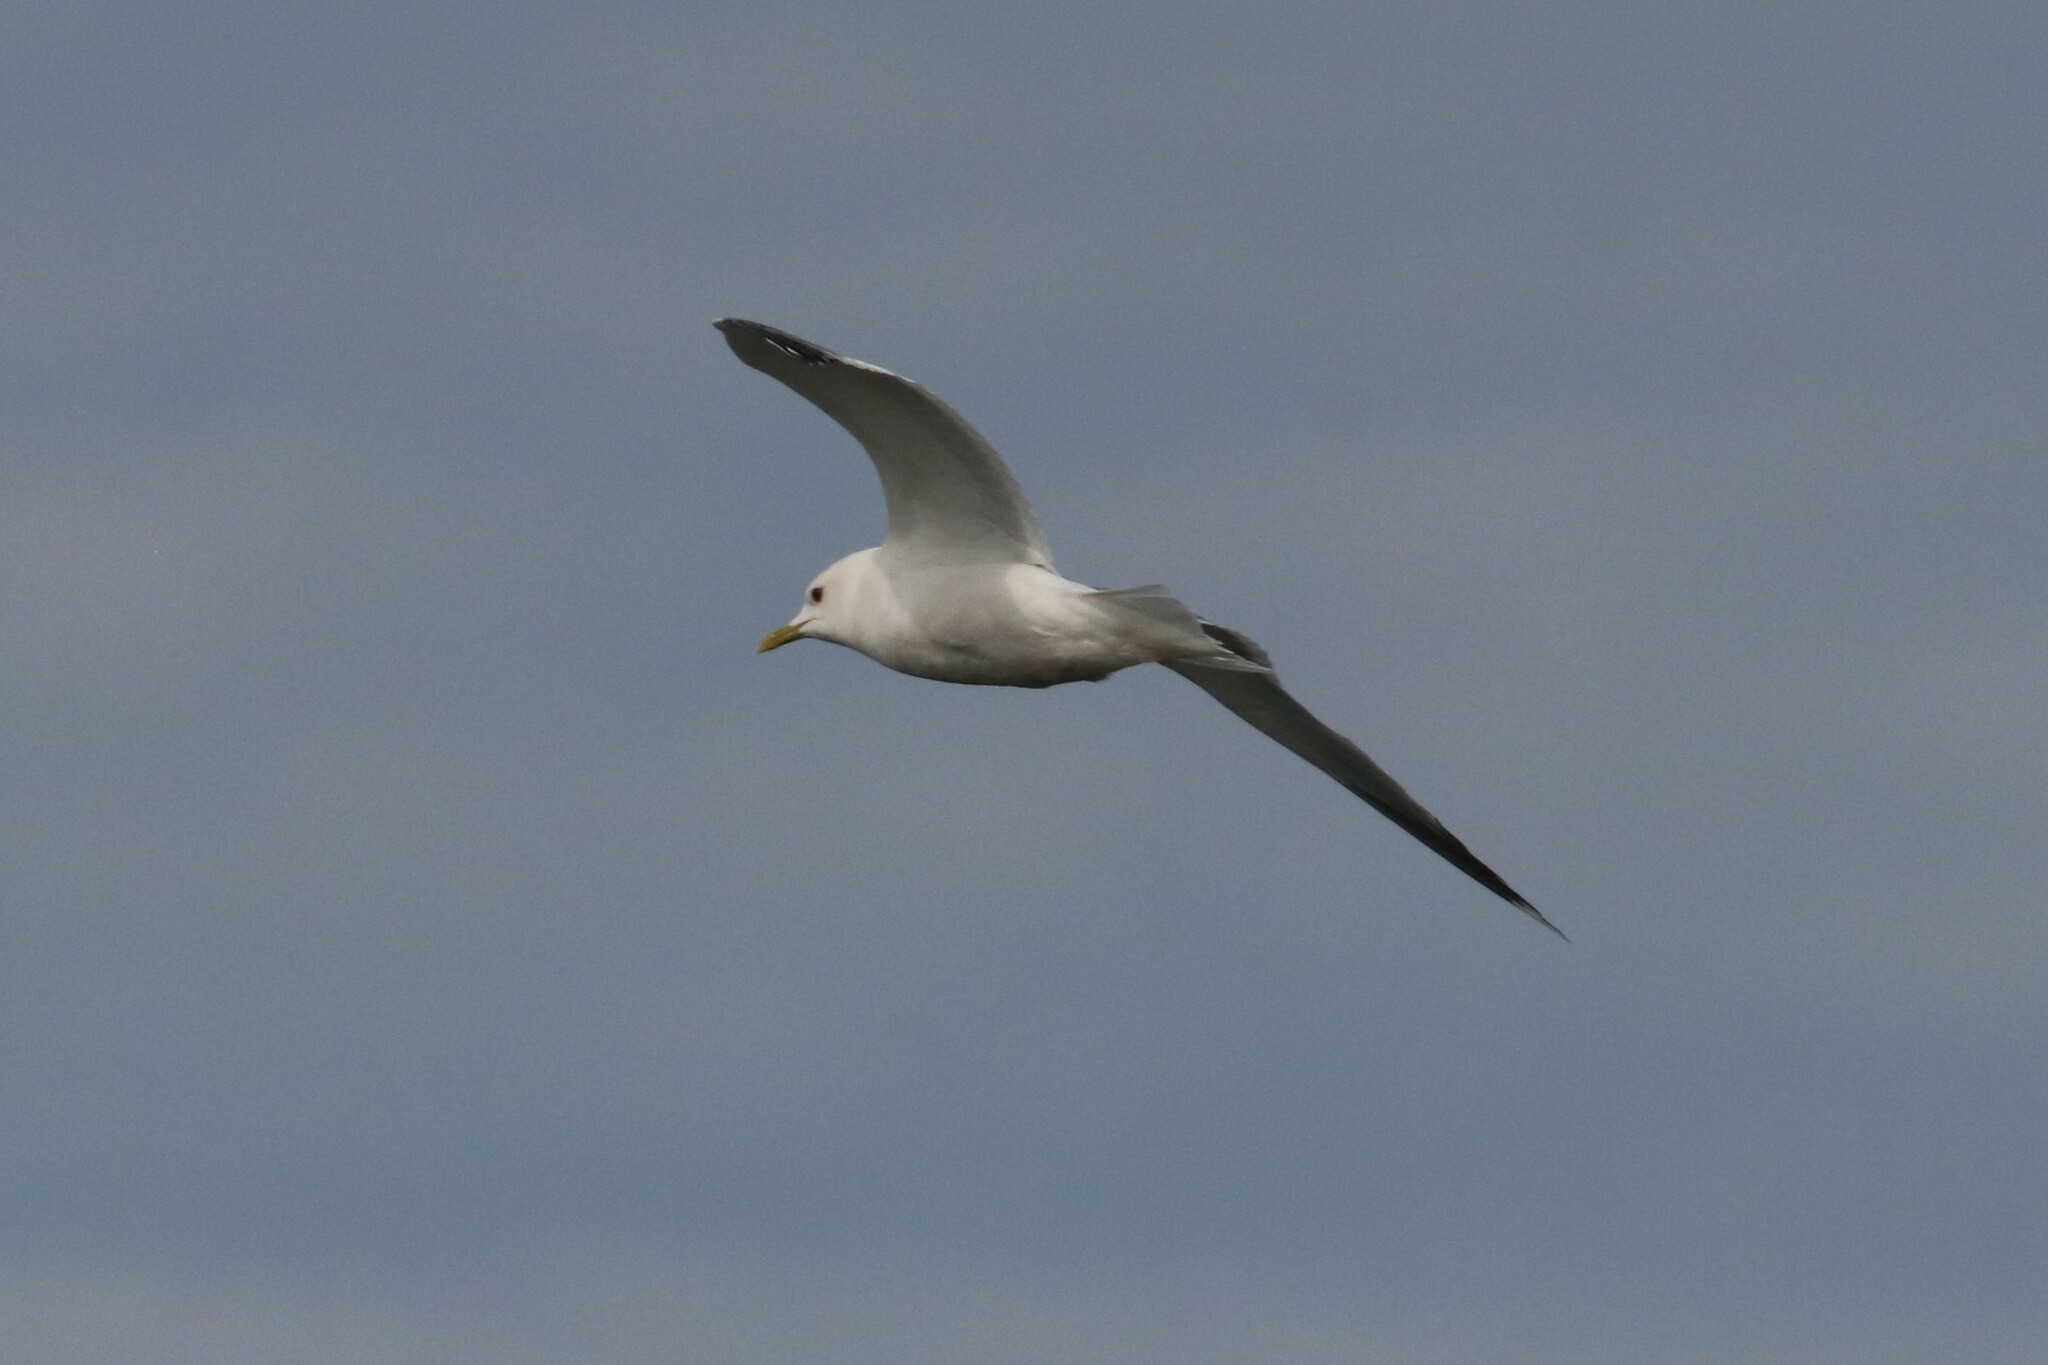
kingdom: Animalia
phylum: Chordata
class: Aves
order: Charadriiformes
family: Laridae
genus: Larus
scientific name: Larus canus
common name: Mew gull
